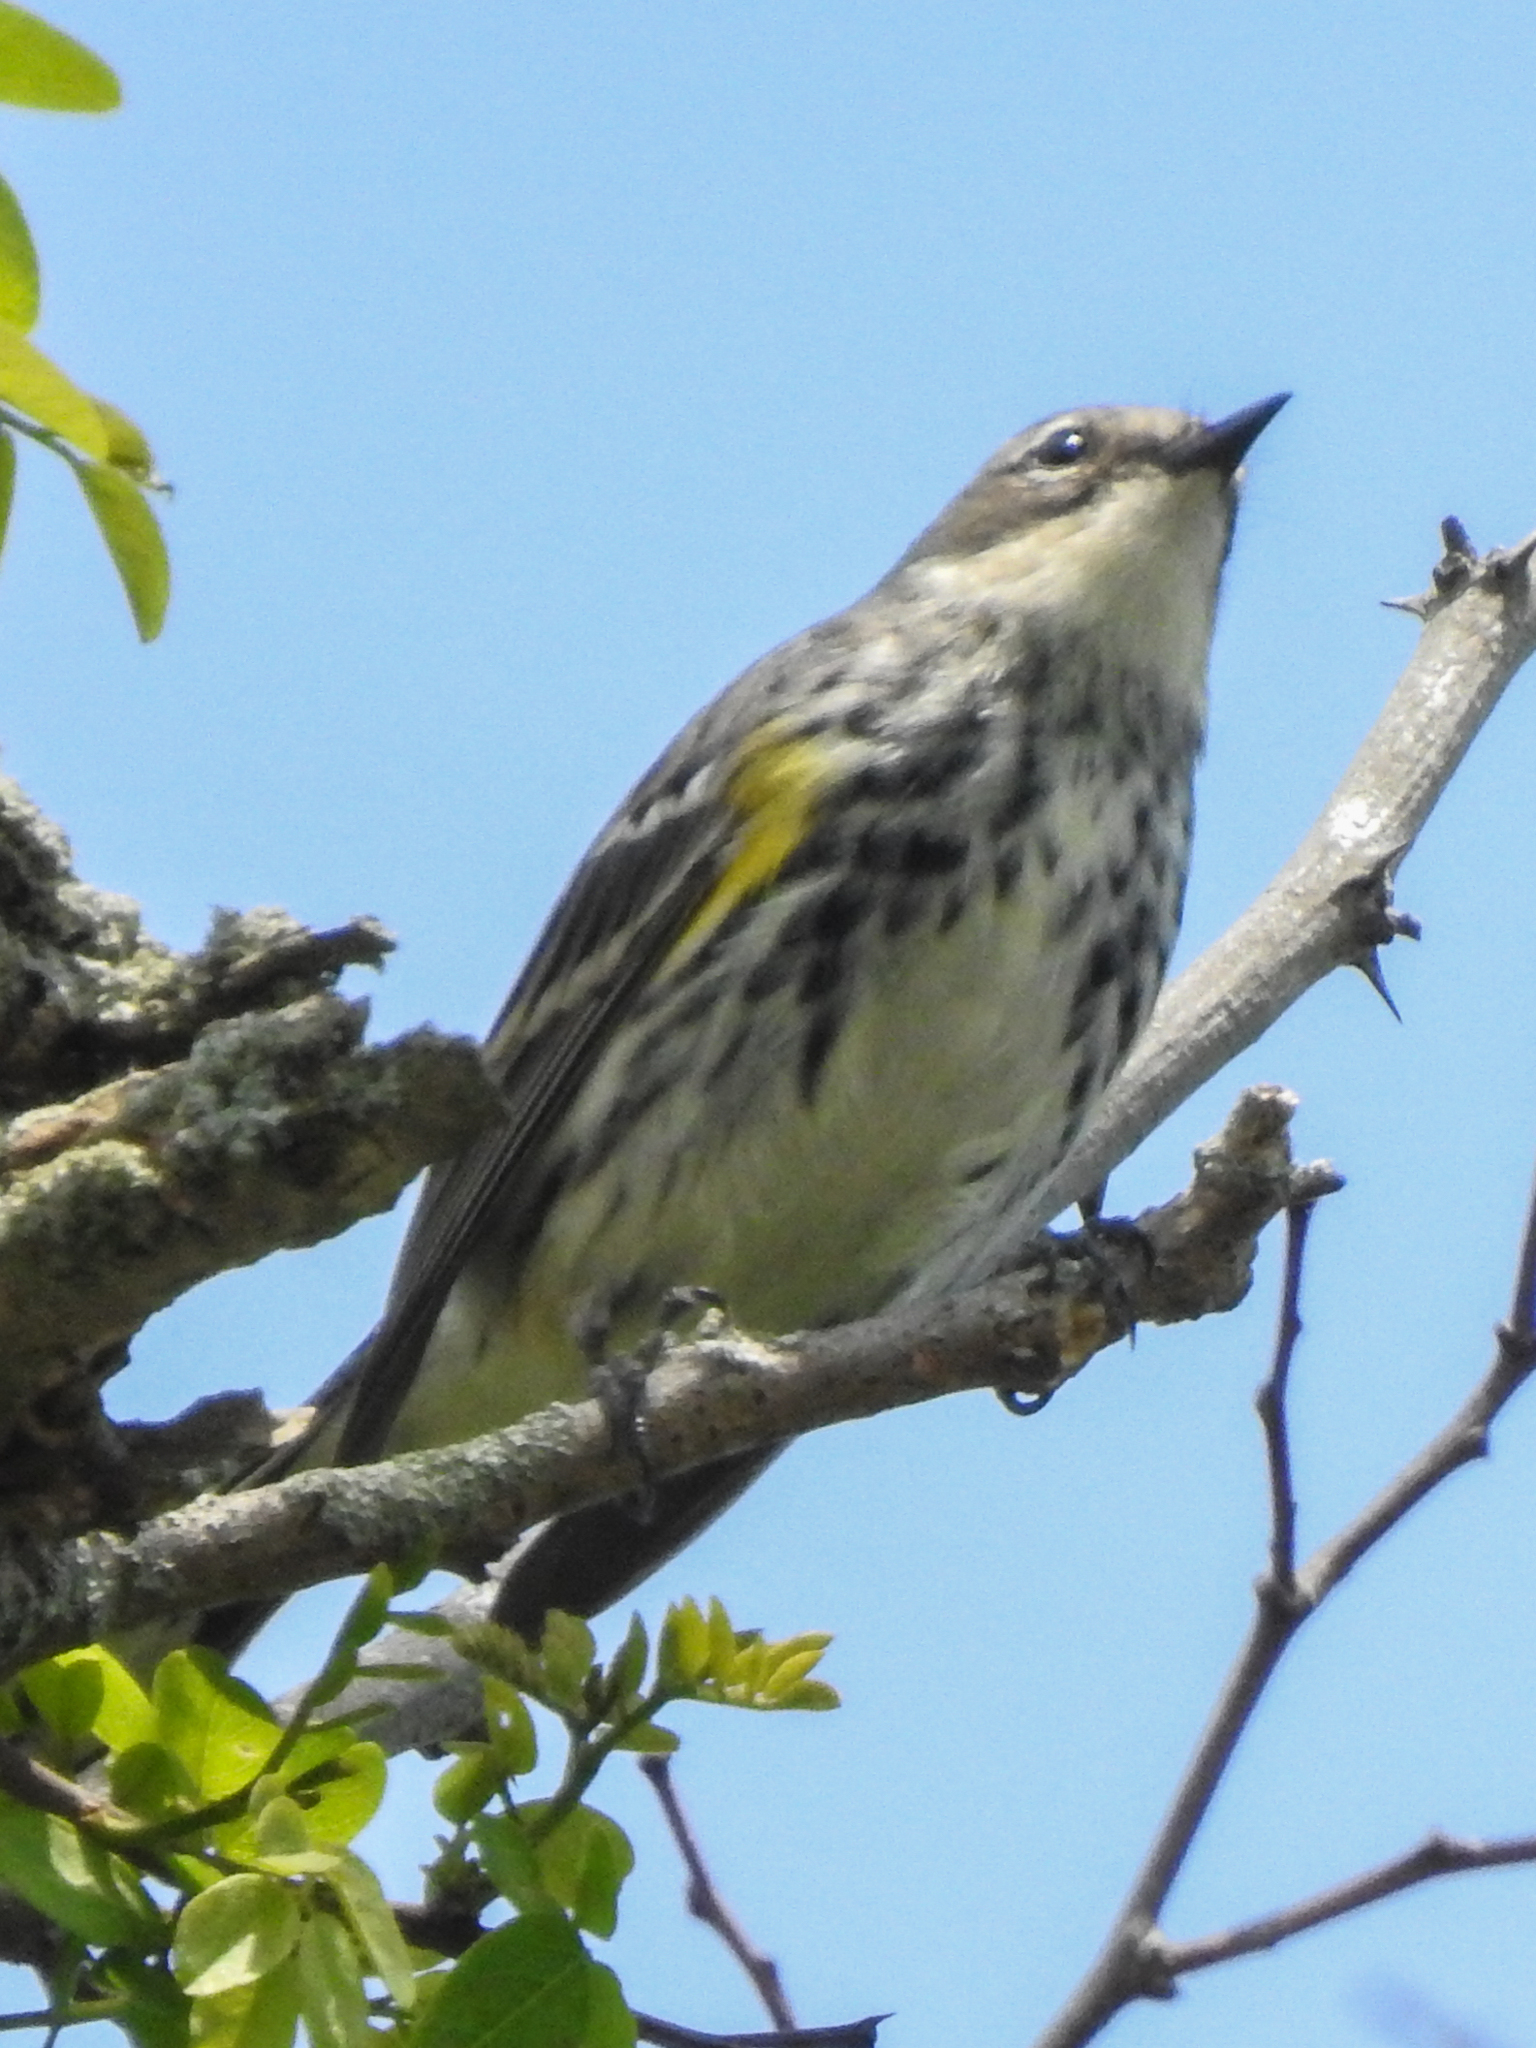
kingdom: Animalia
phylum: Chordata
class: Aves
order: Passeriformes
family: Parulidae
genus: Setophaga
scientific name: Setophaga coronata
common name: Myrtle warbler
